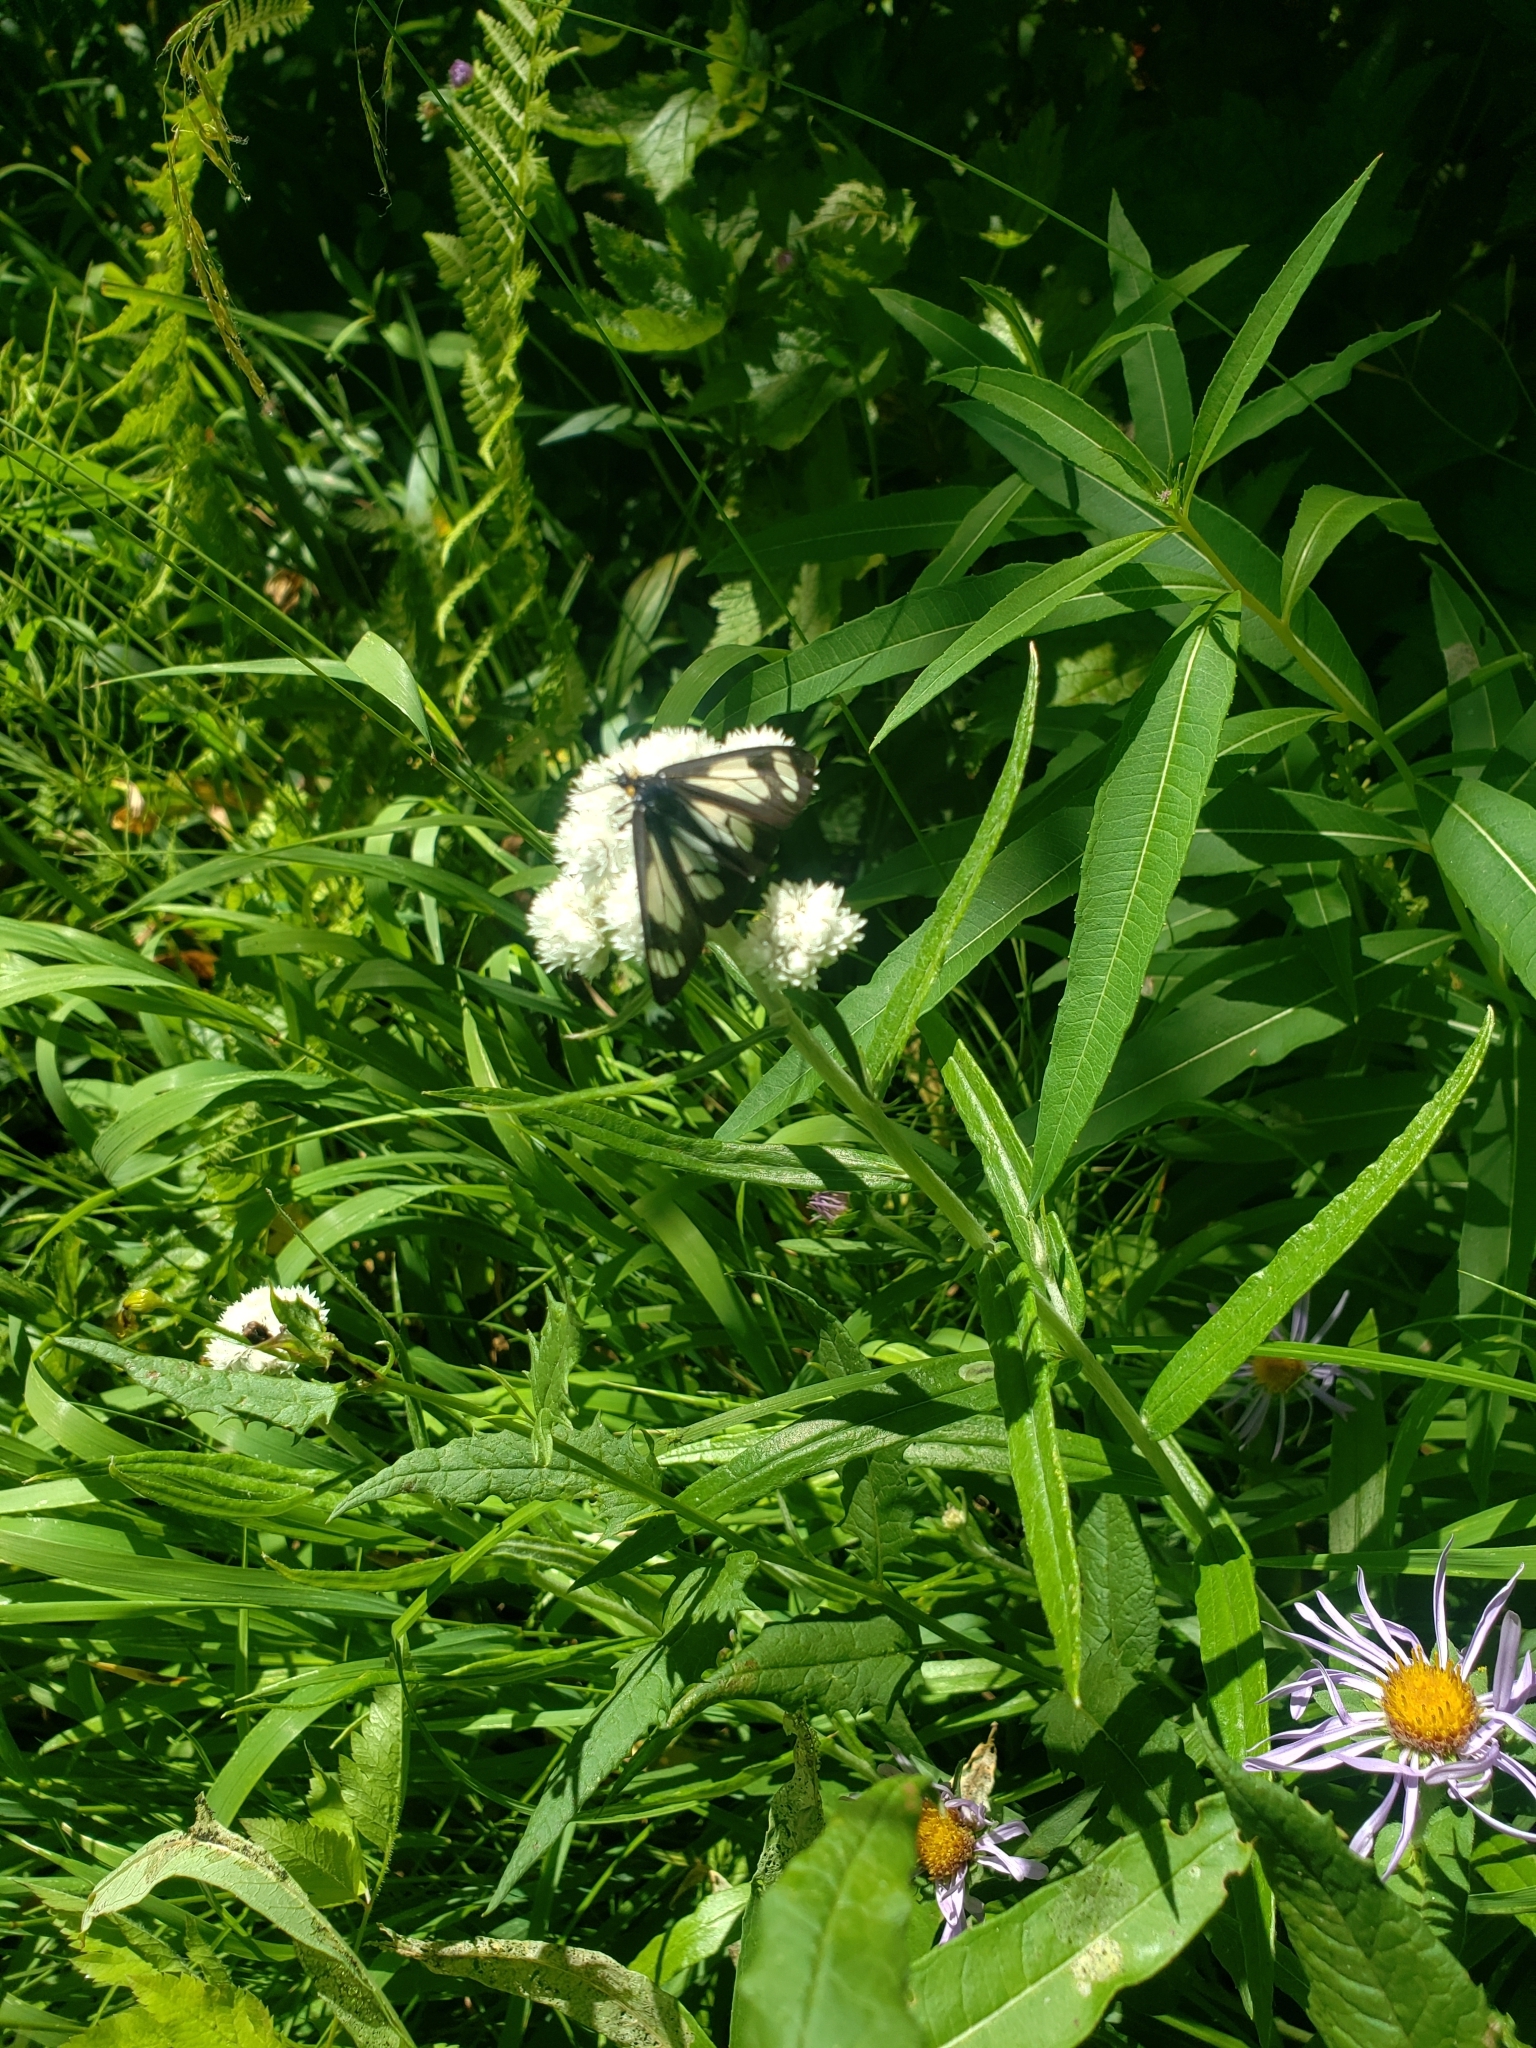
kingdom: Animalia
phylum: Arthropoda
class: Insecta
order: Lepidoptera
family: Erebidae
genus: Gnophaela
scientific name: Gnophaela vermiculata
